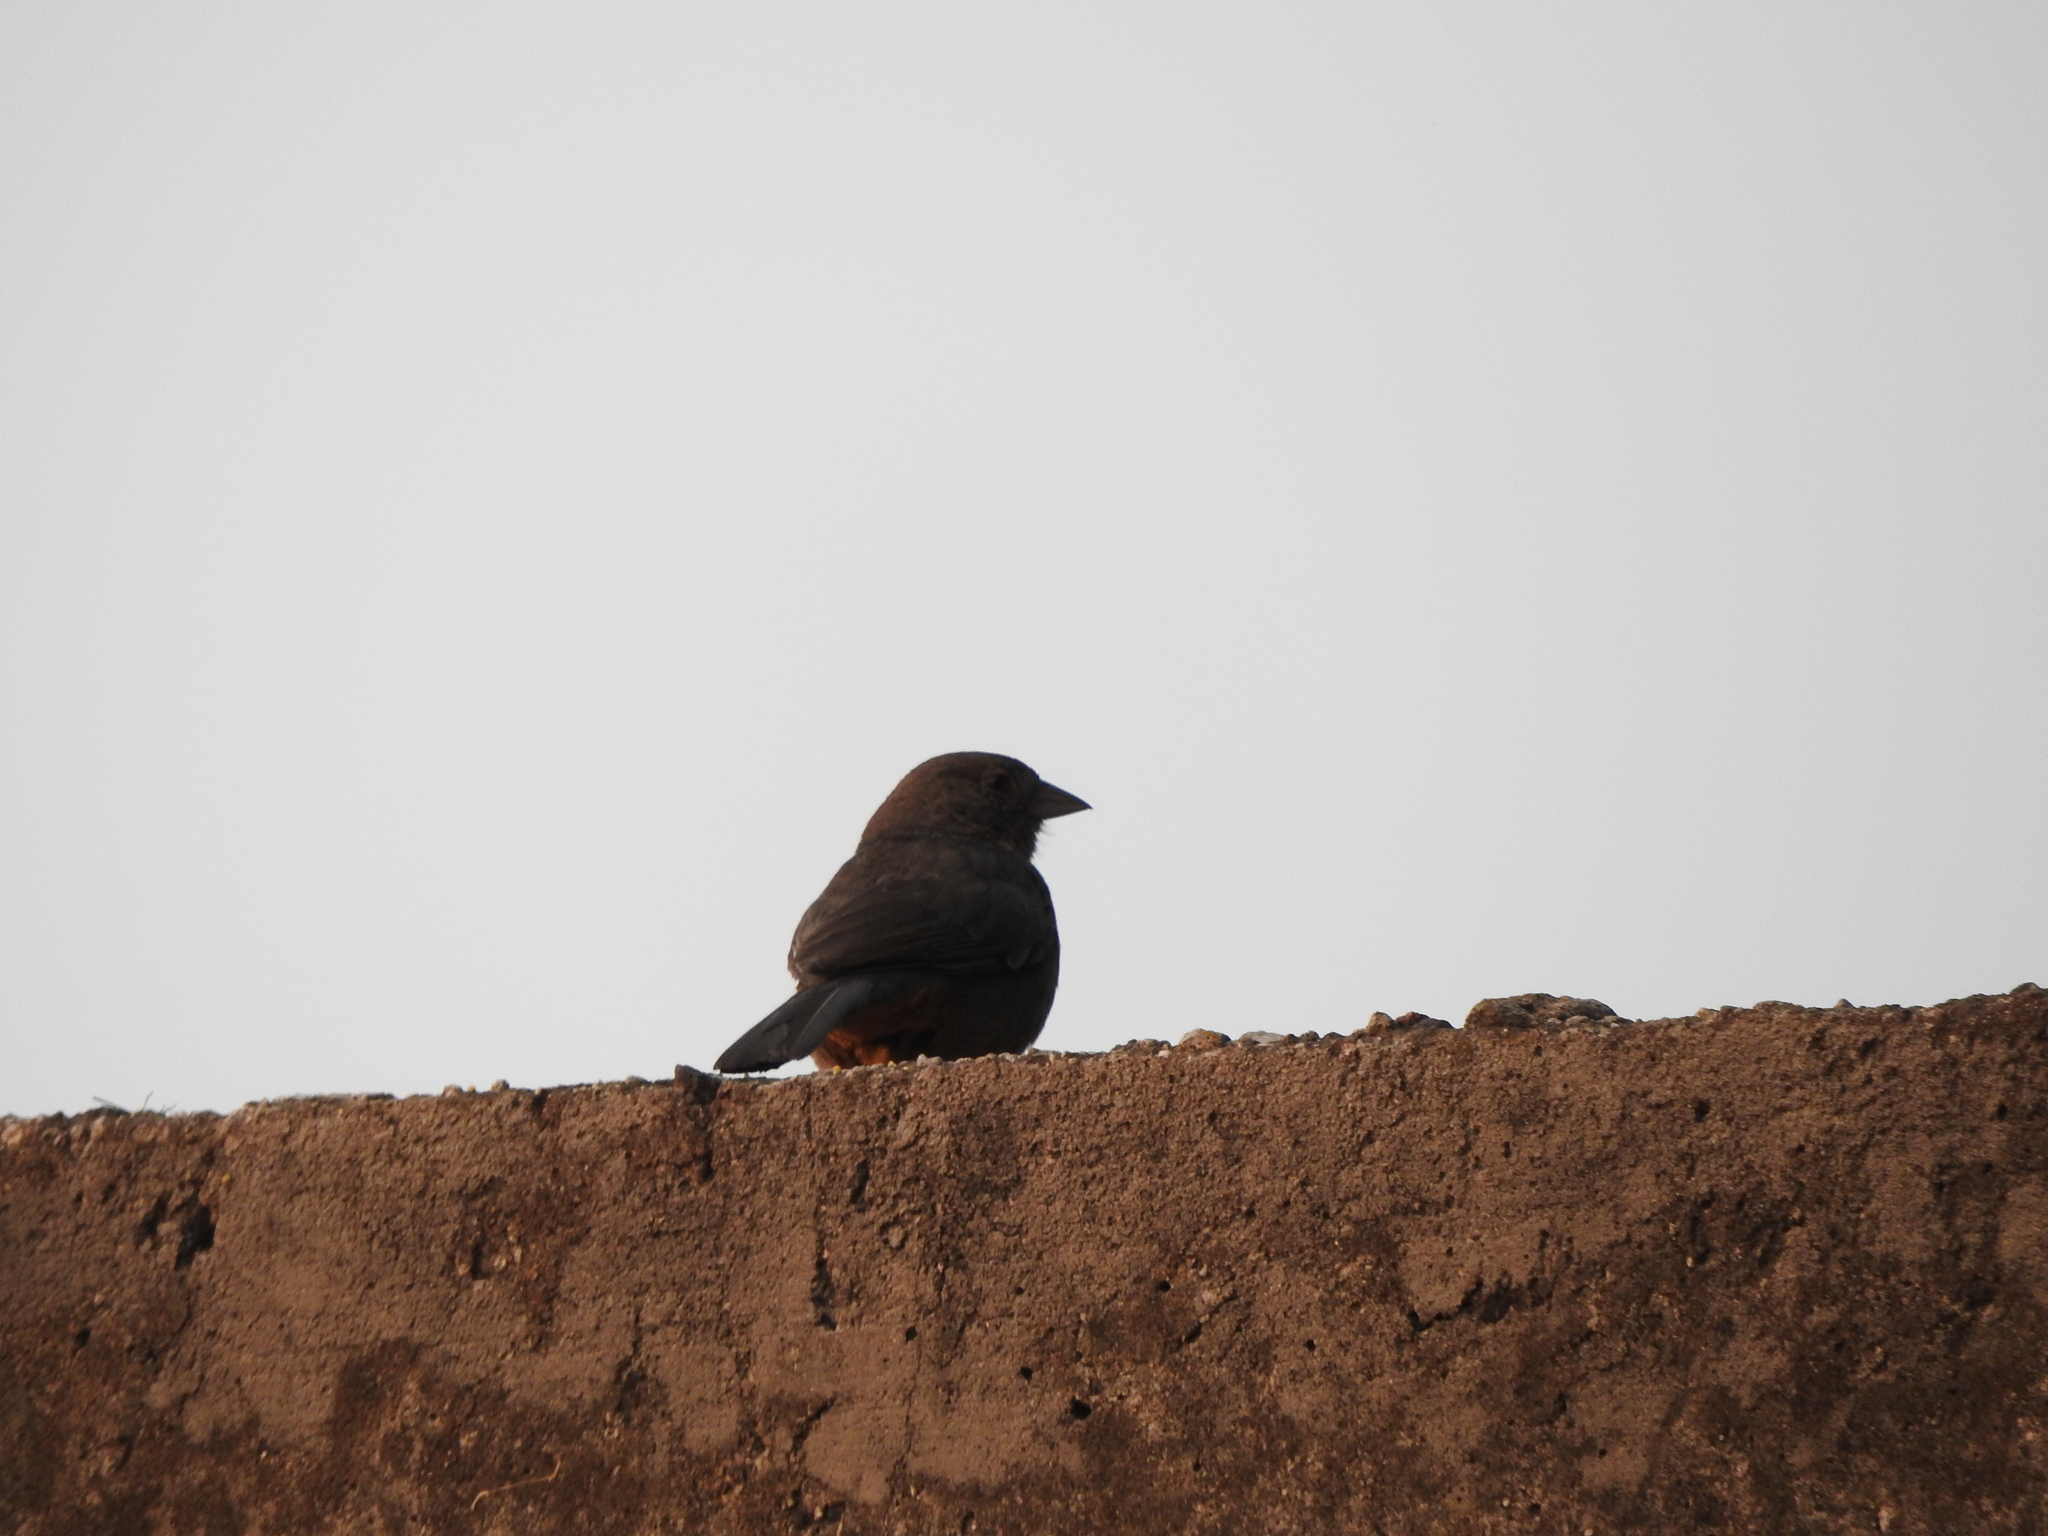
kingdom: Animalia
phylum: Chordata
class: Aves
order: Passeriformes
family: Passerellidae
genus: Melozone
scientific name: Melozone fusca
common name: Canyon towhee
